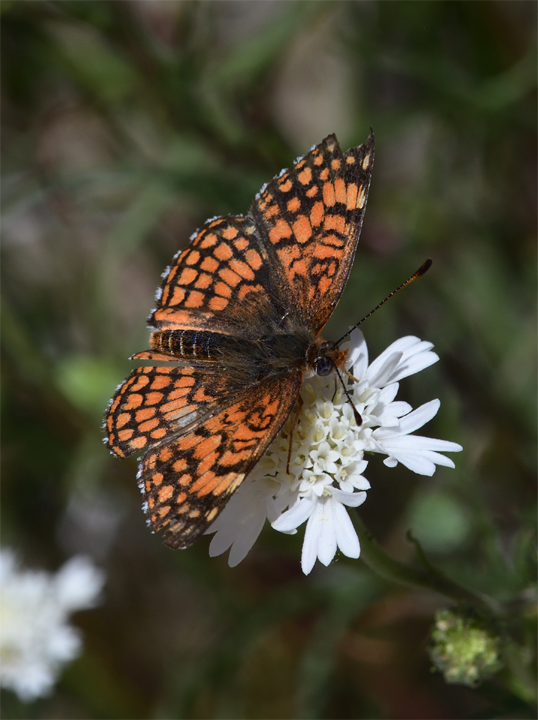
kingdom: Animalia
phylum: Arthropoda
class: Insecta
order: Lepidoptera
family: Nymphalidae
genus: Chlosyne
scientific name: Chlosyne acastus
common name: Sagebrush checkerspot
